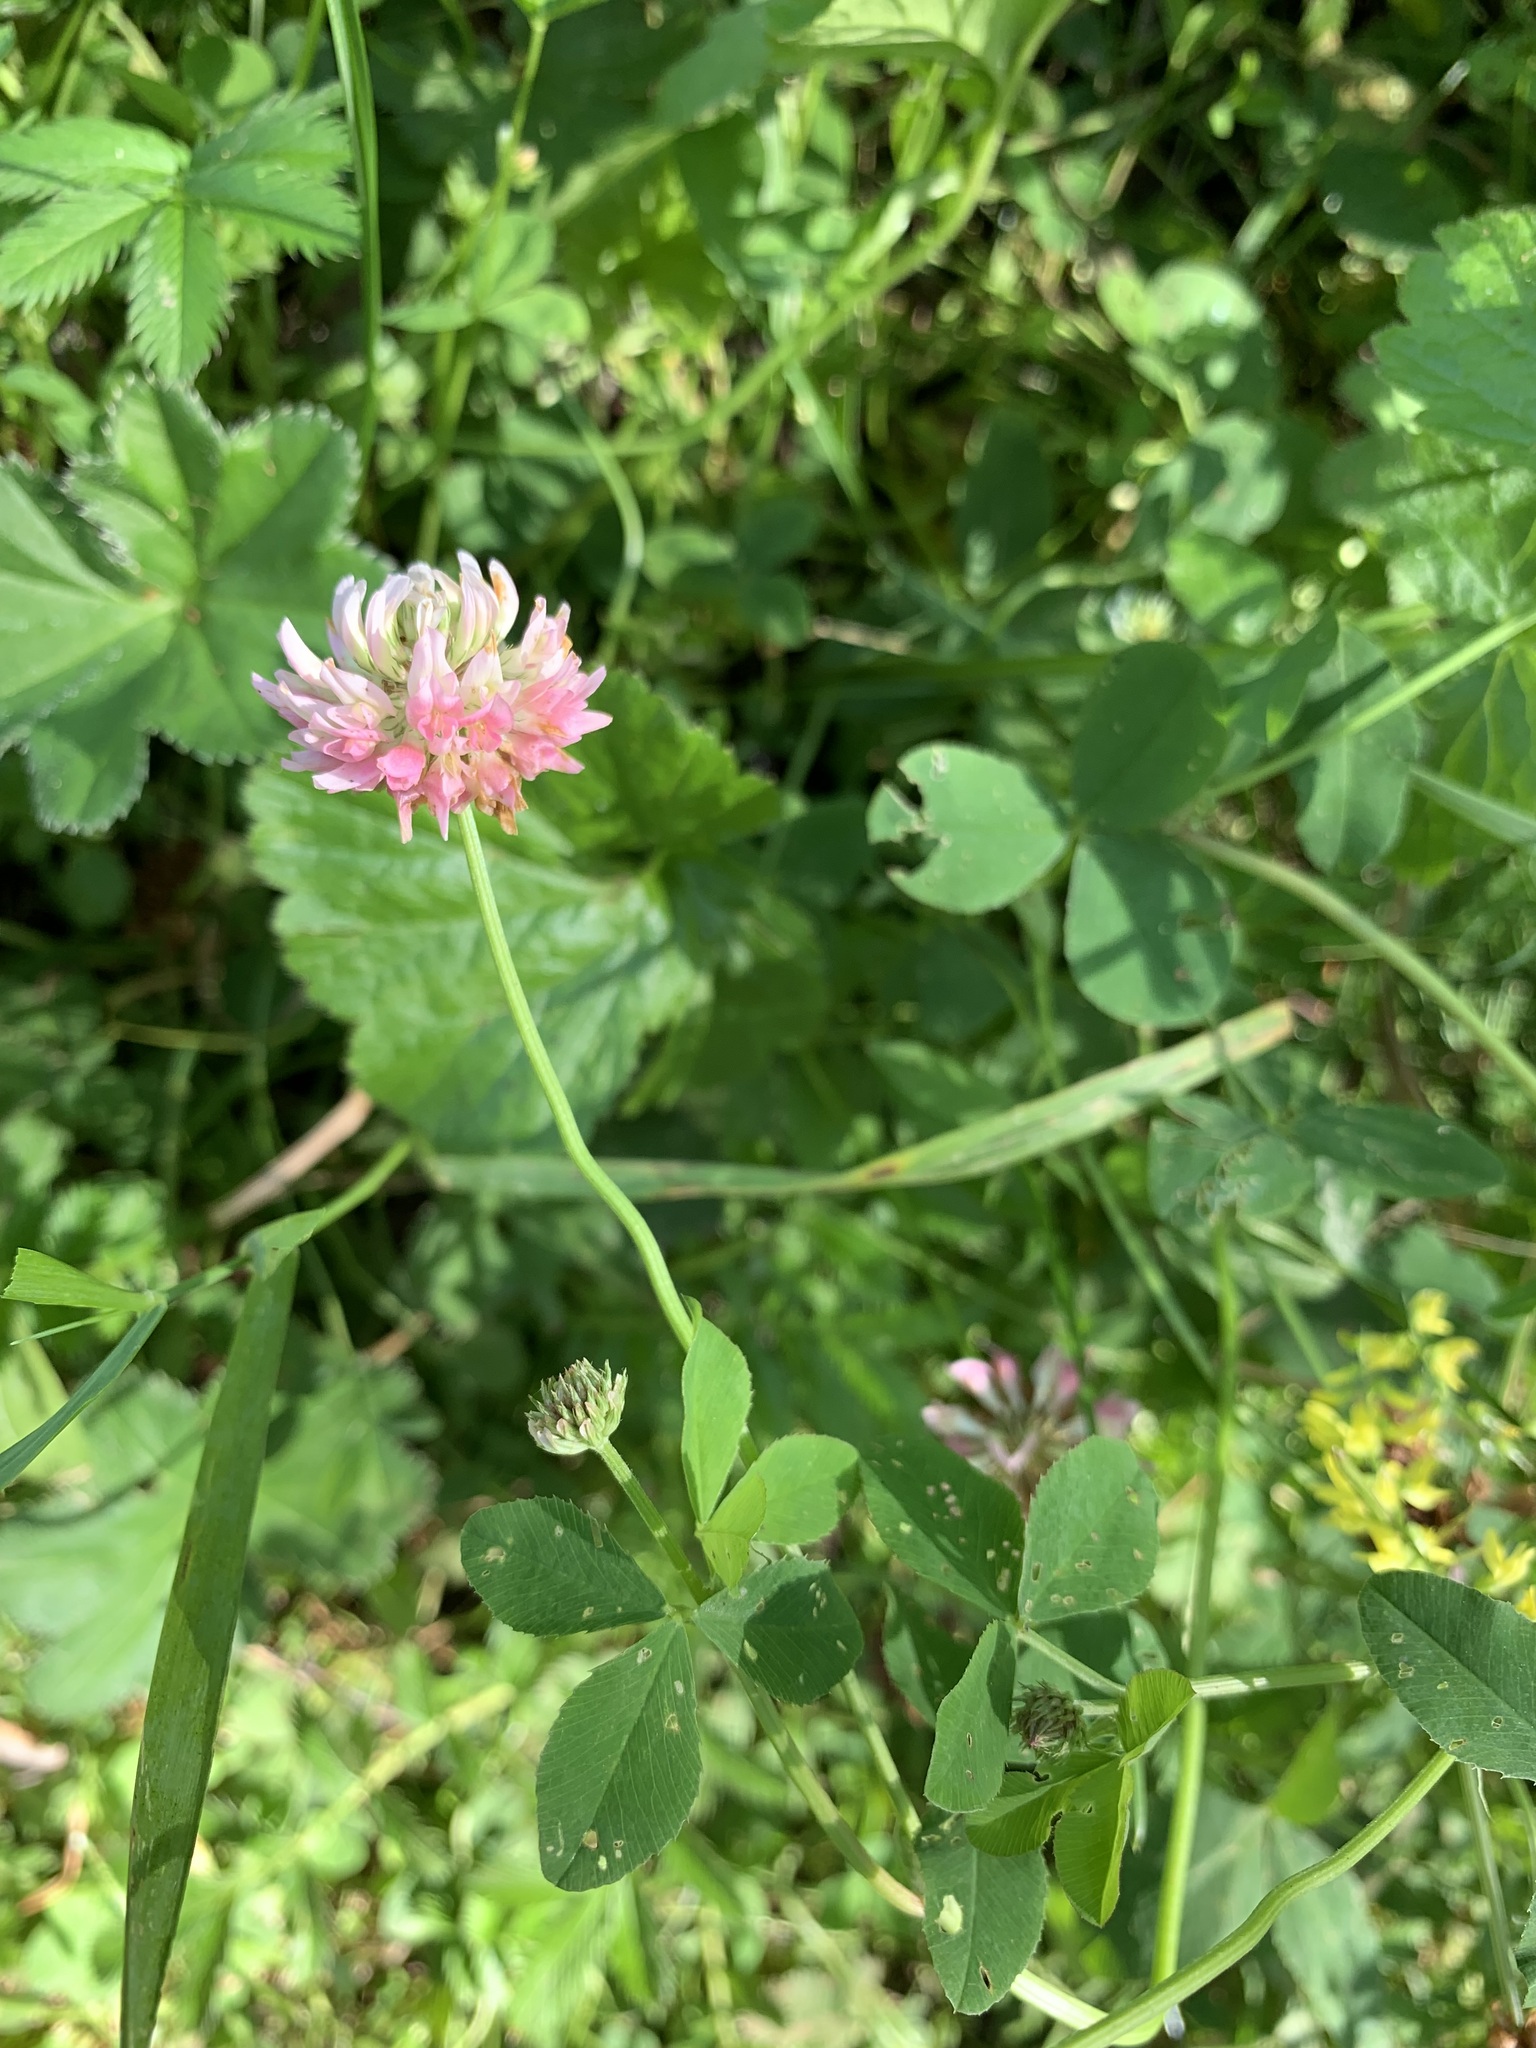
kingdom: Plantae
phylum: Tracheophyta
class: Magnoliopsida
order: Fabales
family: Fabaceae
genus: Trifolium
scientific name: Trifolium hybridum
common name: Alsike clover
